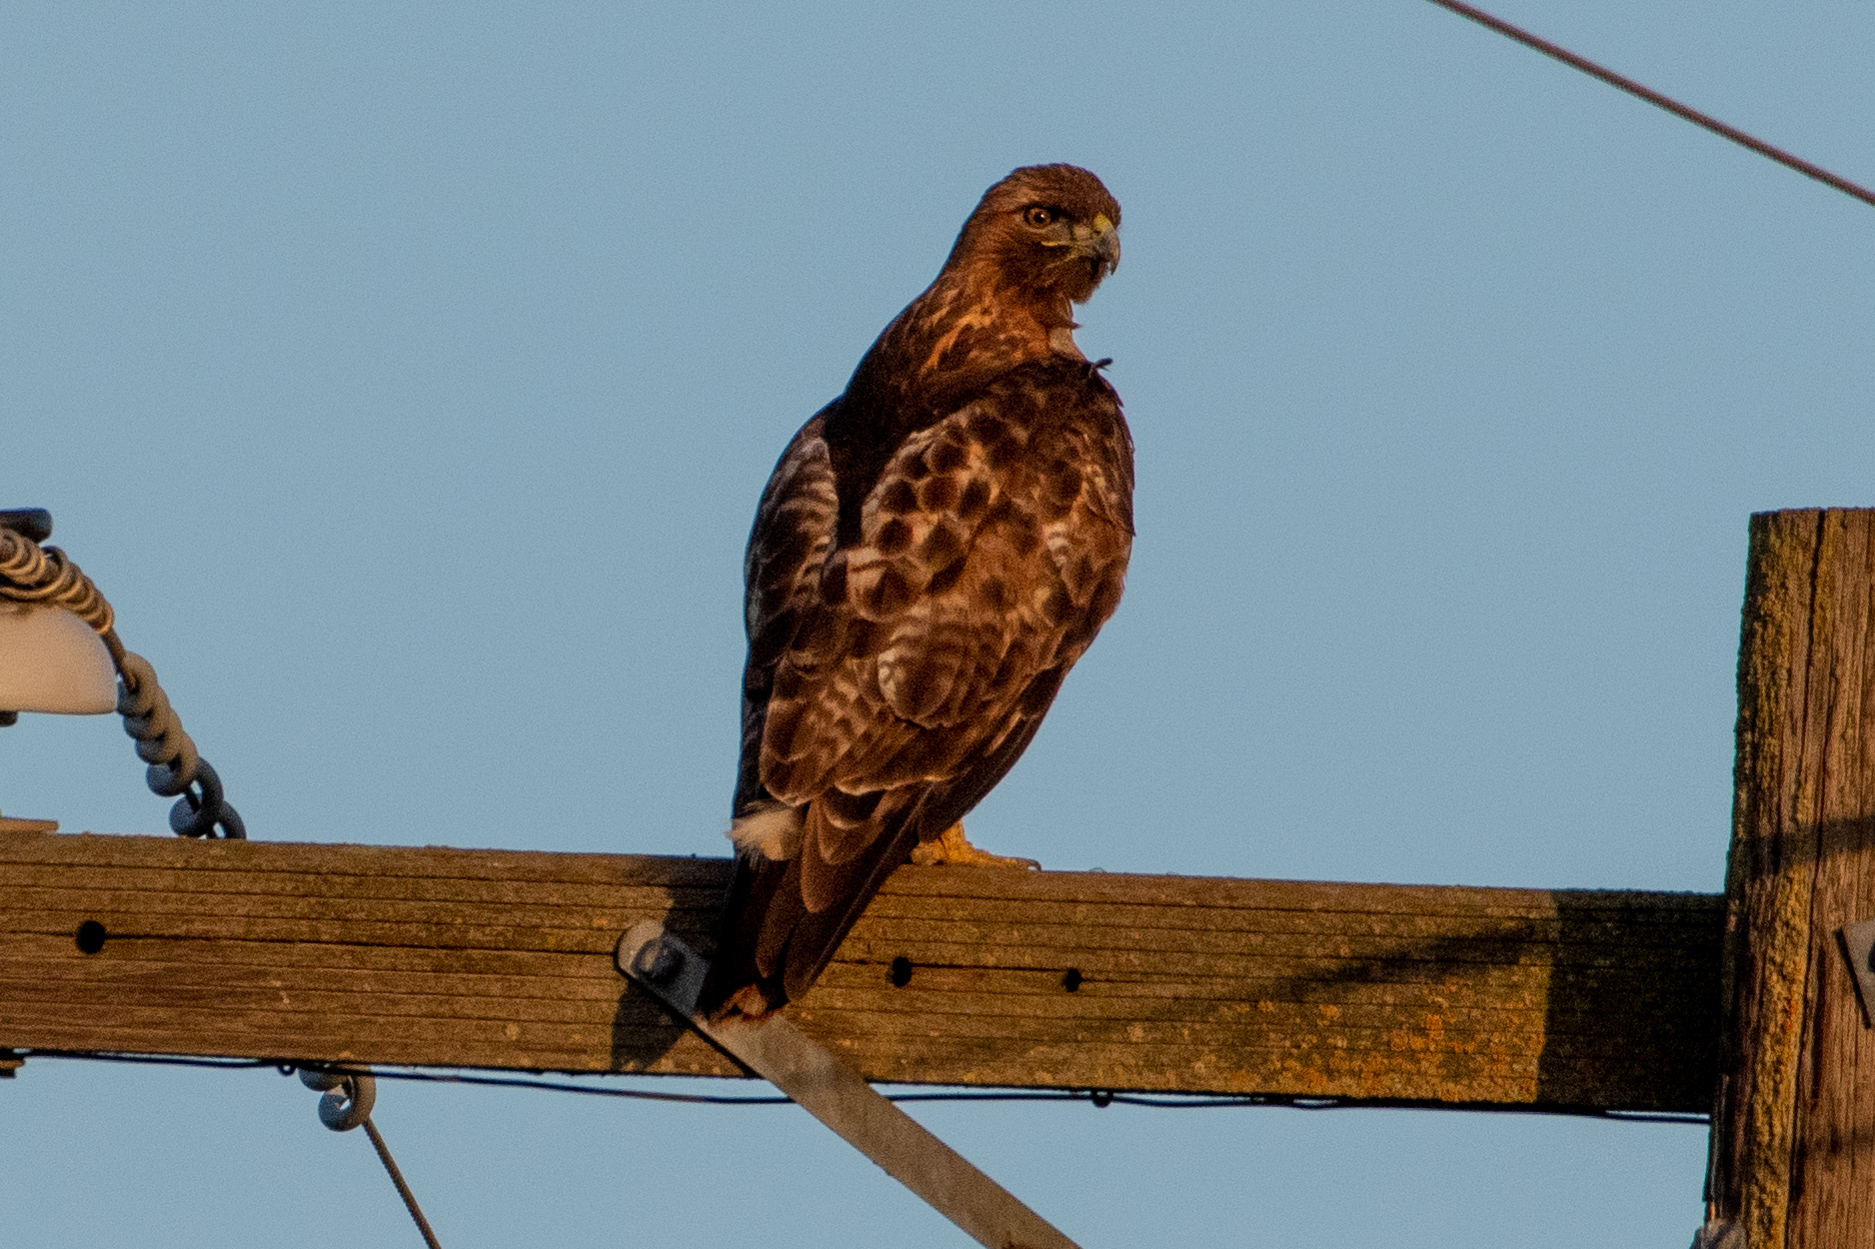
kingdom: Animalia
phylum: Chordata
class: Aves
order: Accipitriformes
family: Accipitridae
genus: Buteo
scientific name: Buteo jamaicensis
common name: Red-tailed hawk
